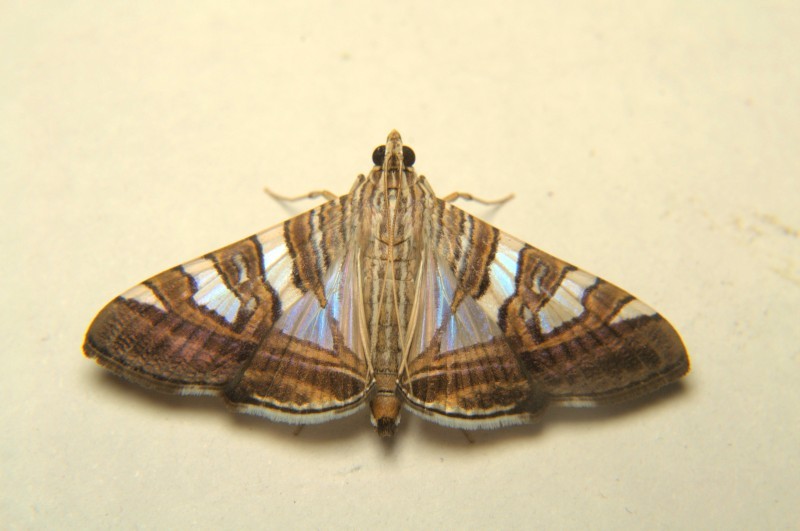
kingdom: Animalia
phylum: Arthropoda
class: Insecta
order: Lepidoptera
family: Crambidae
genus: Glyphodes
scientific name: Glyphodes stolalis
